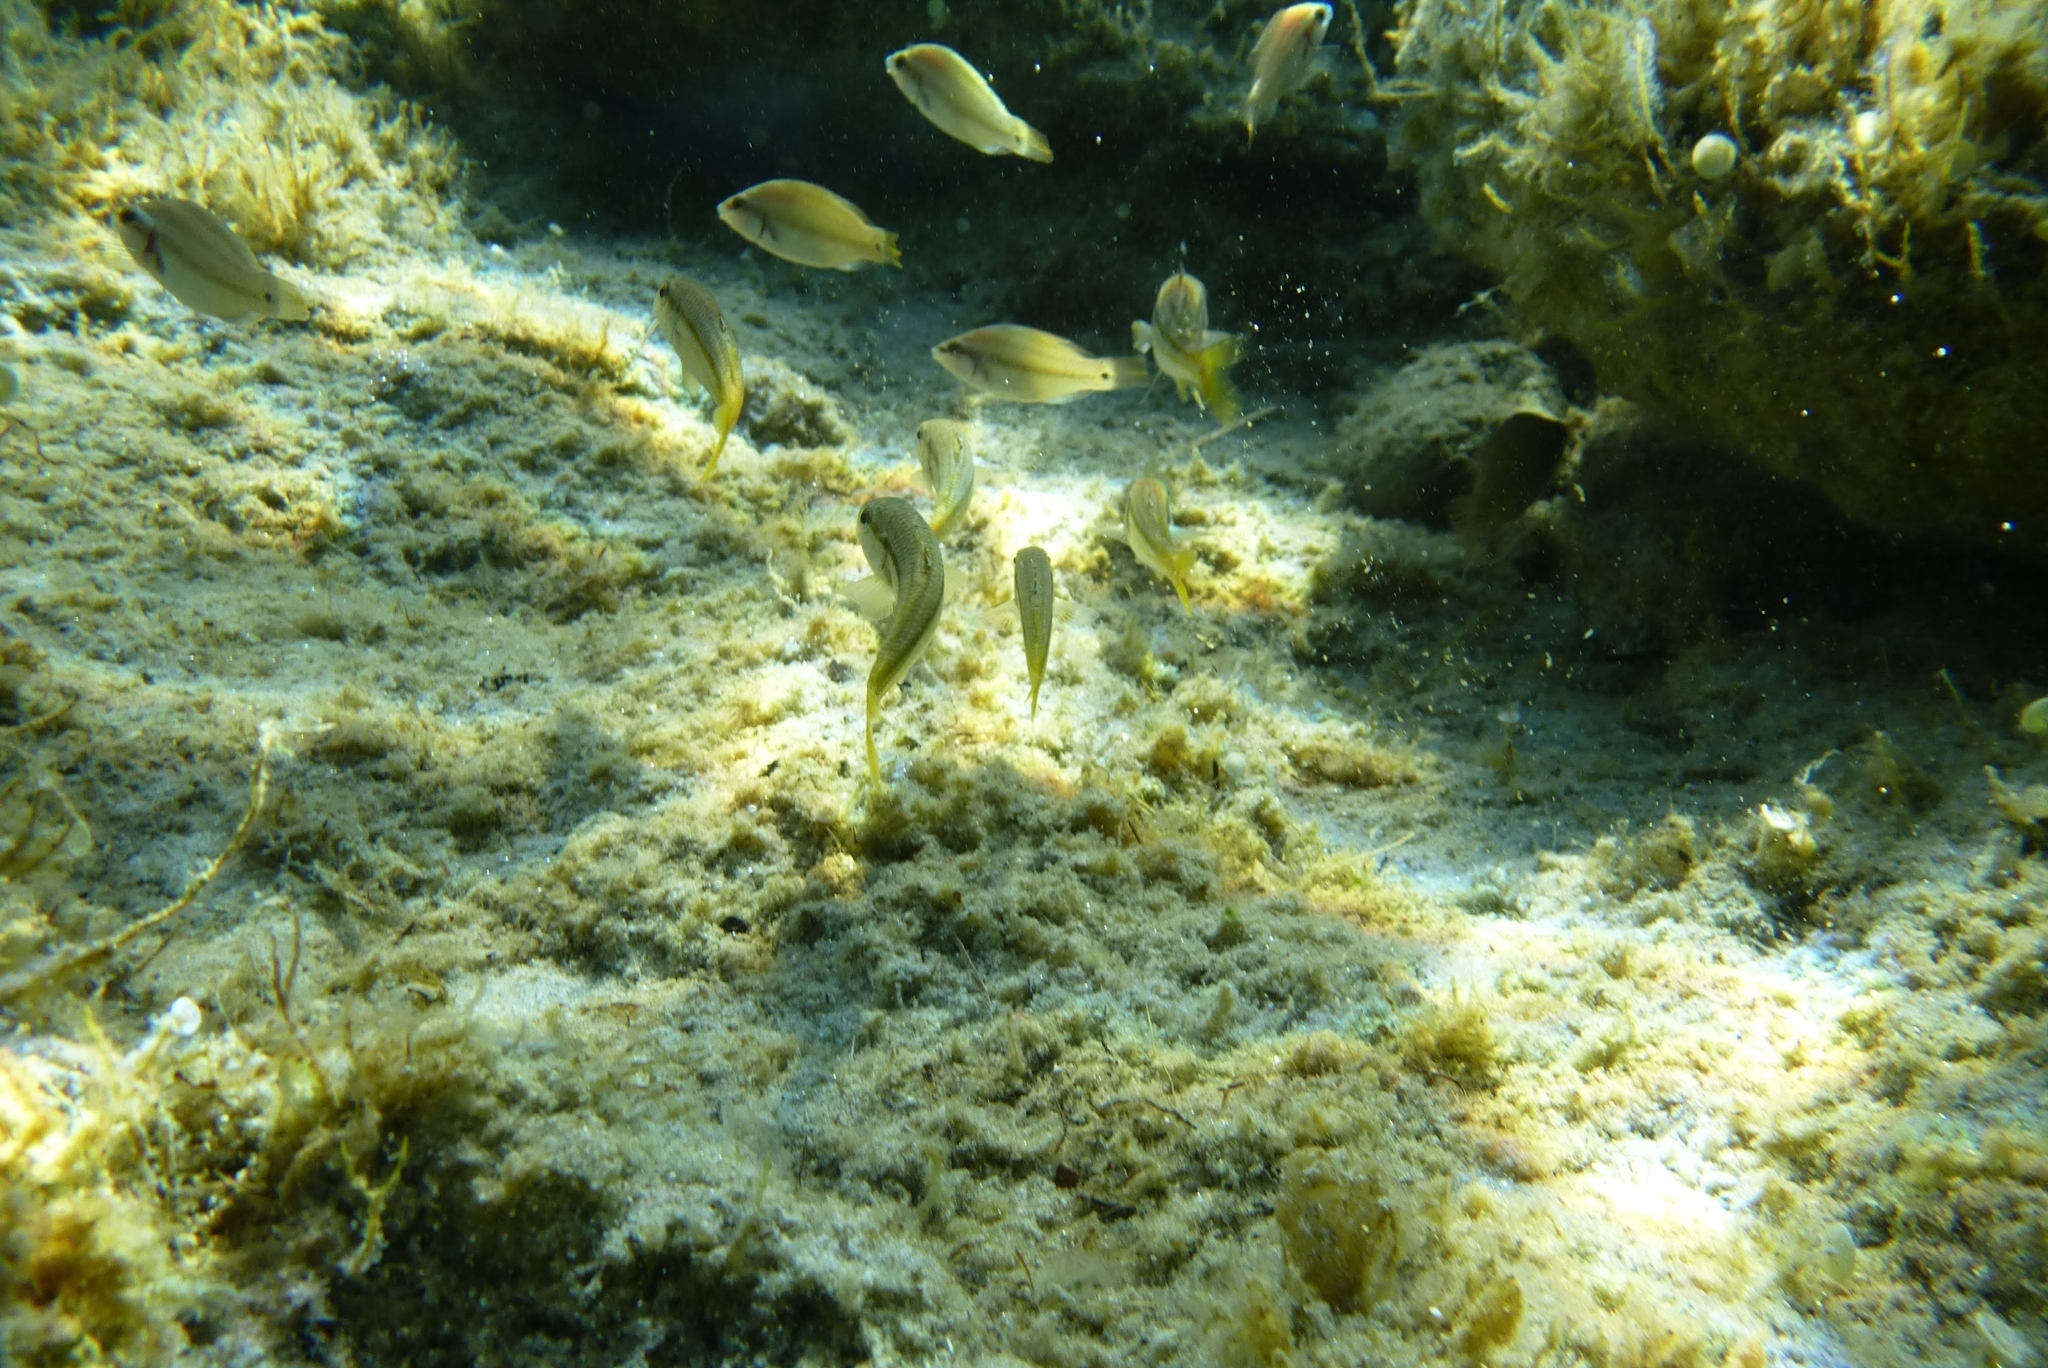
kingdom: Animalia
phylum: Chordata
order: Perciformes
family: Mullidae
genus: Mullus
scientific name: Mullus surmuletus
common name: Red mullet
